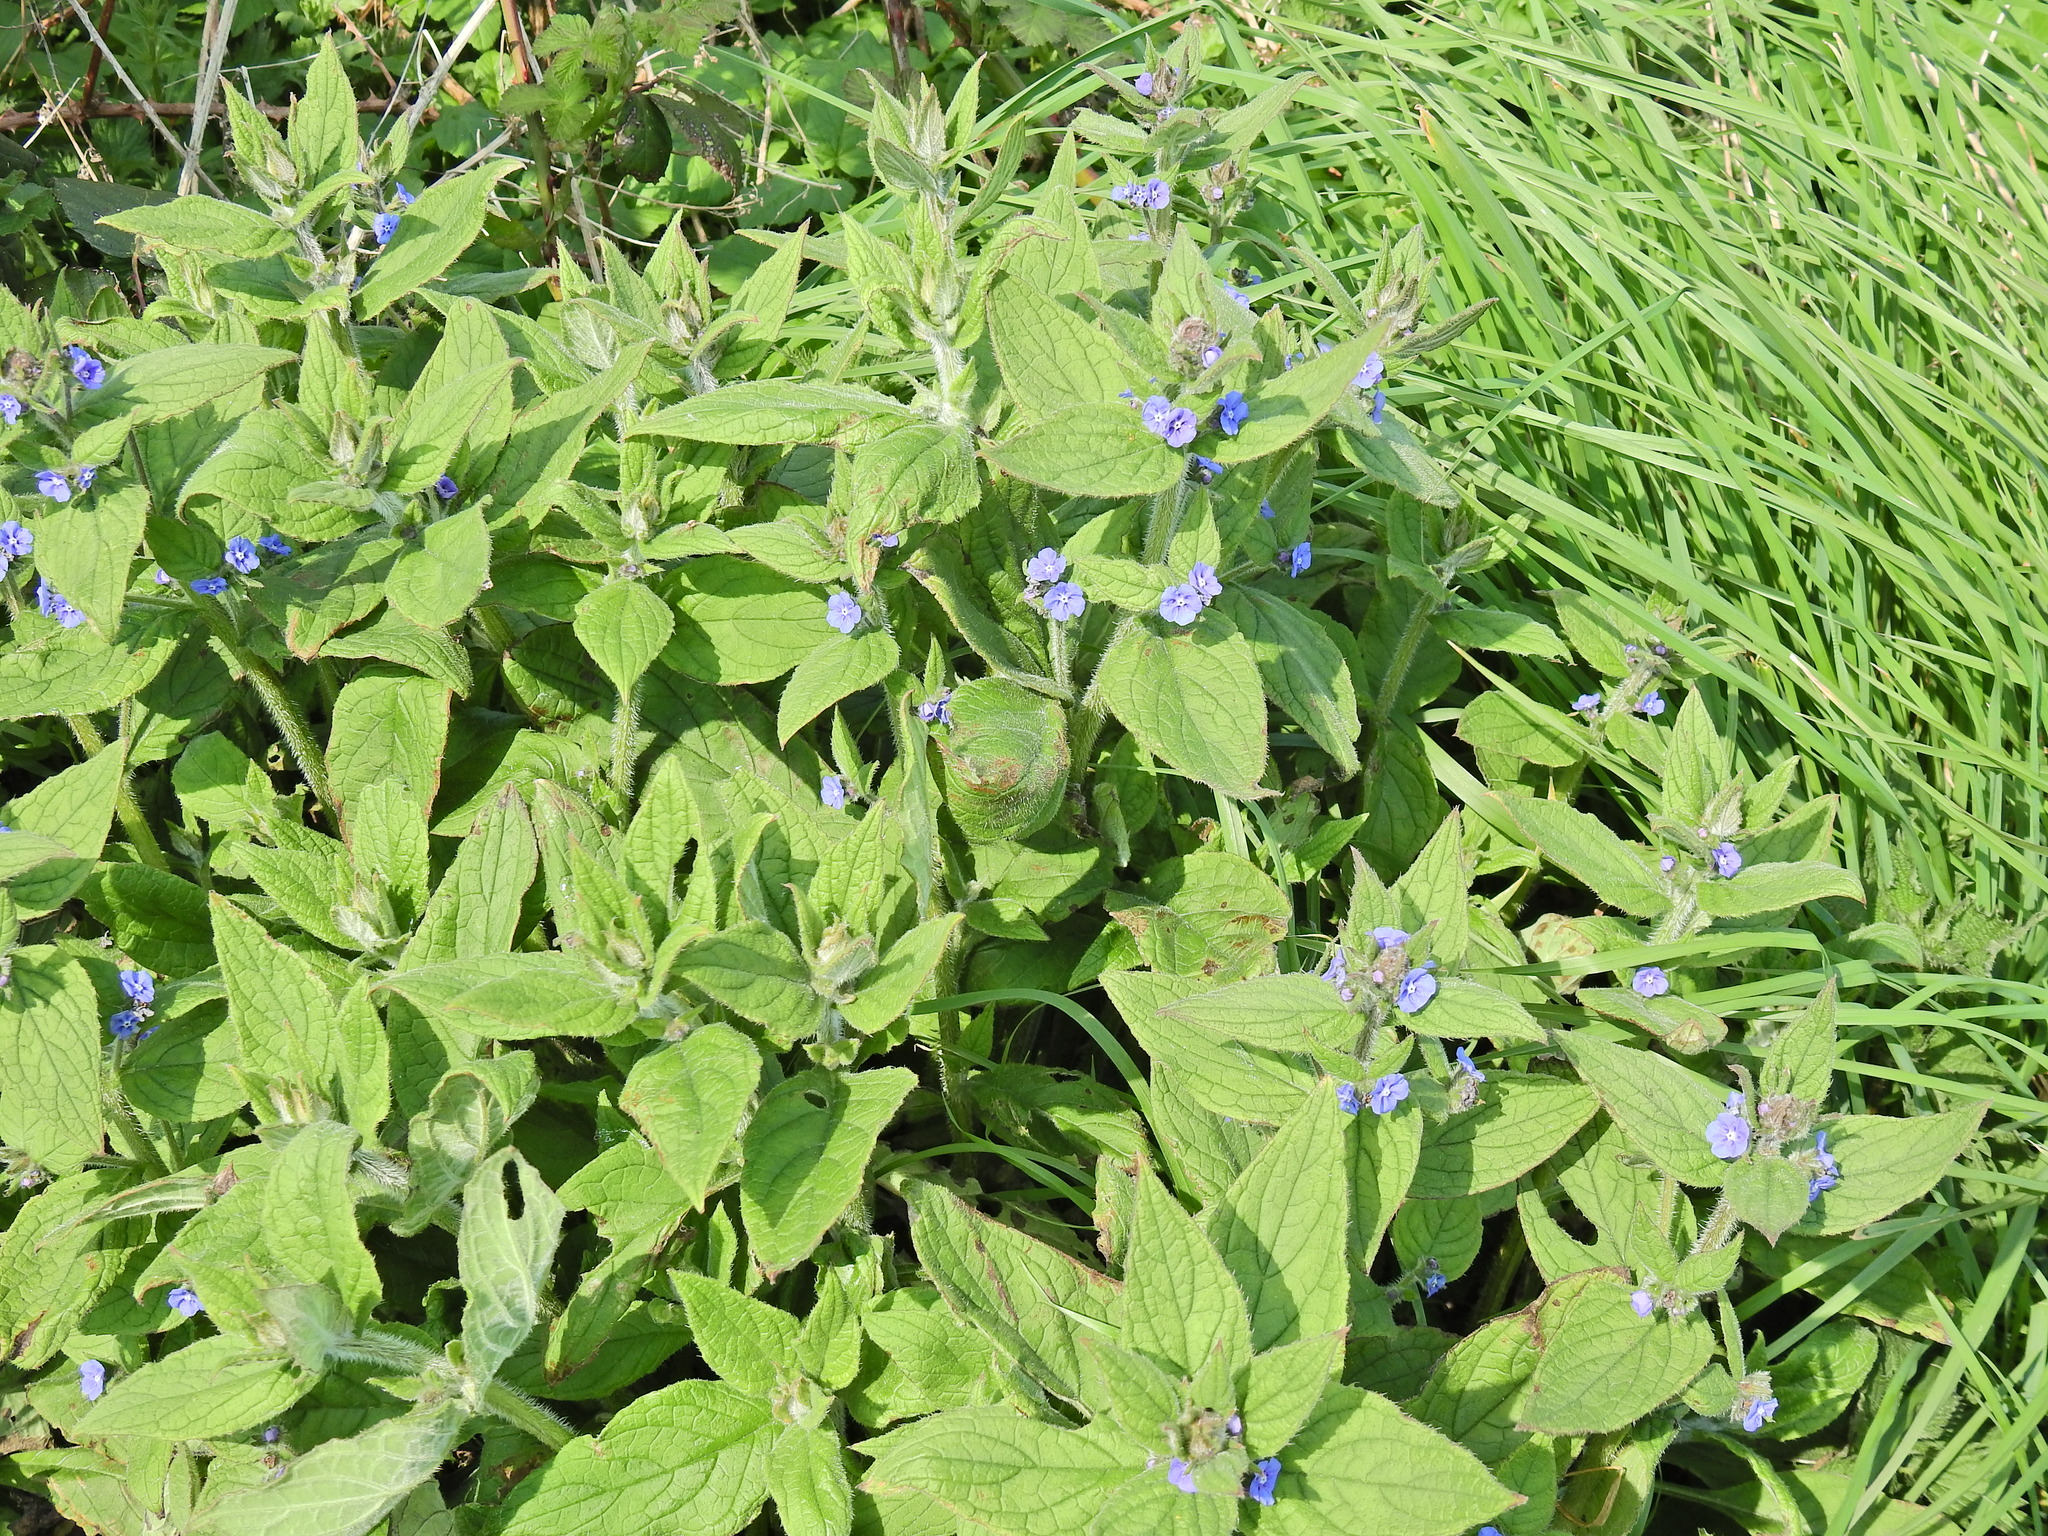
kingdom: Plantae
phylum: Tracheophyta
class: Magnoliopsida
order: Boraginales
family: Boraginaceae
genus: Pentaglottis
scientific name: Pentaglottis sempervirens
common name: Green alkanet
